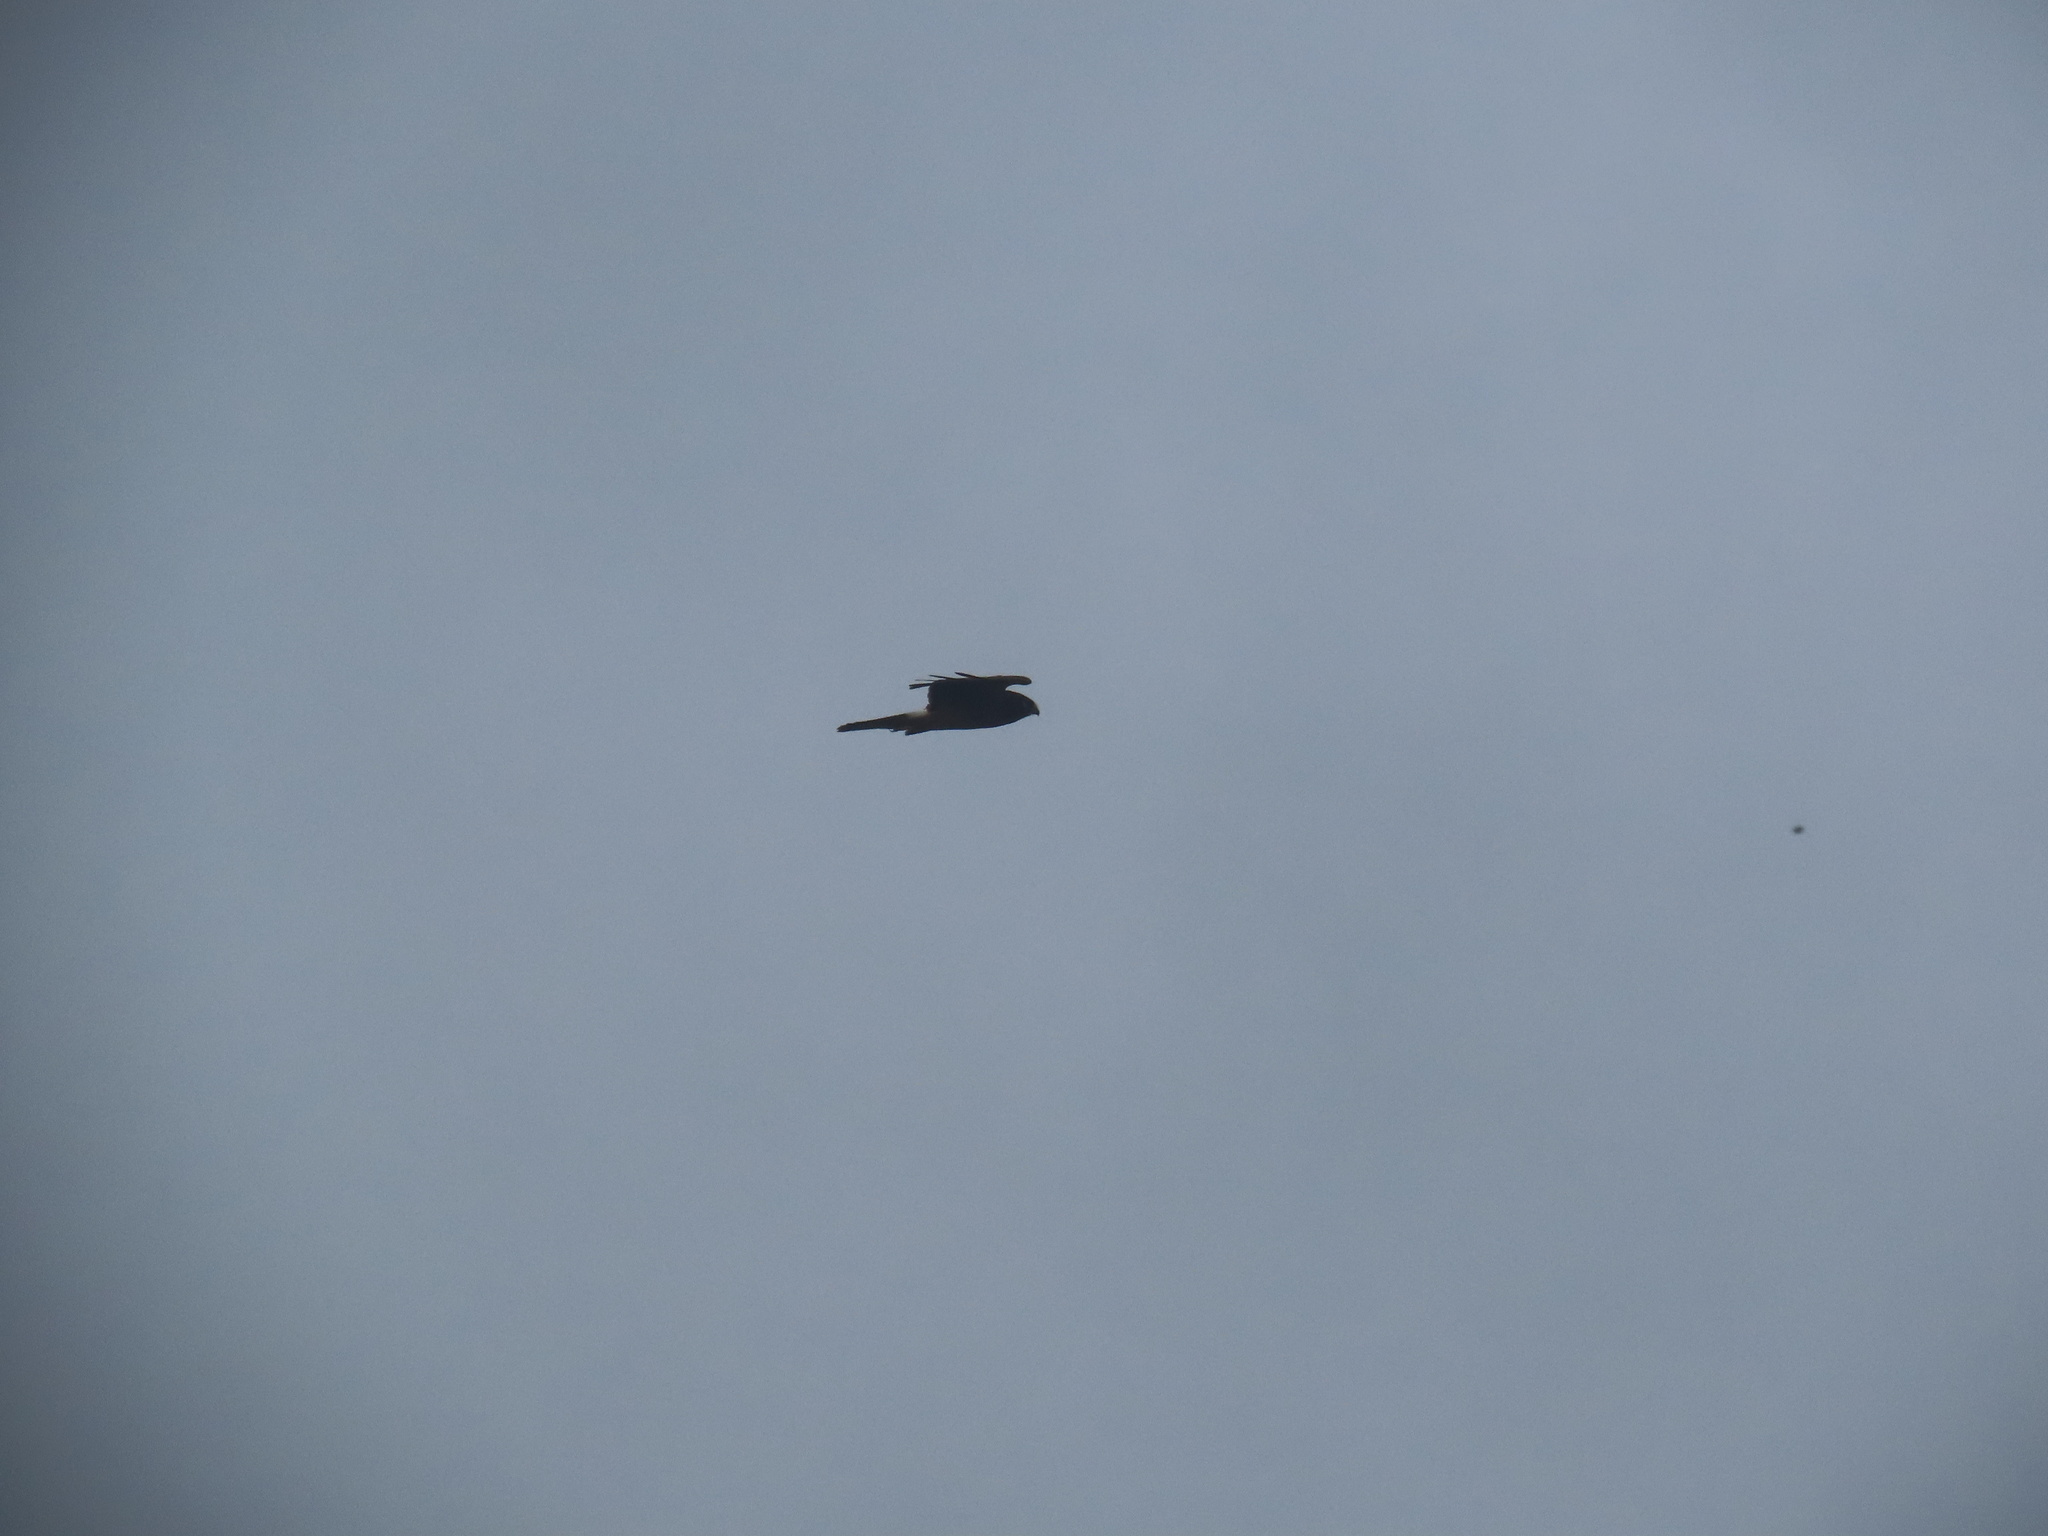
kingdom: Animalia
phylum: Chordata
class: Aves
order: Accipitriformes
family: Accipitridae
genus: Circus
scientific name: Circus cyaneus
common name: Hen harrier
